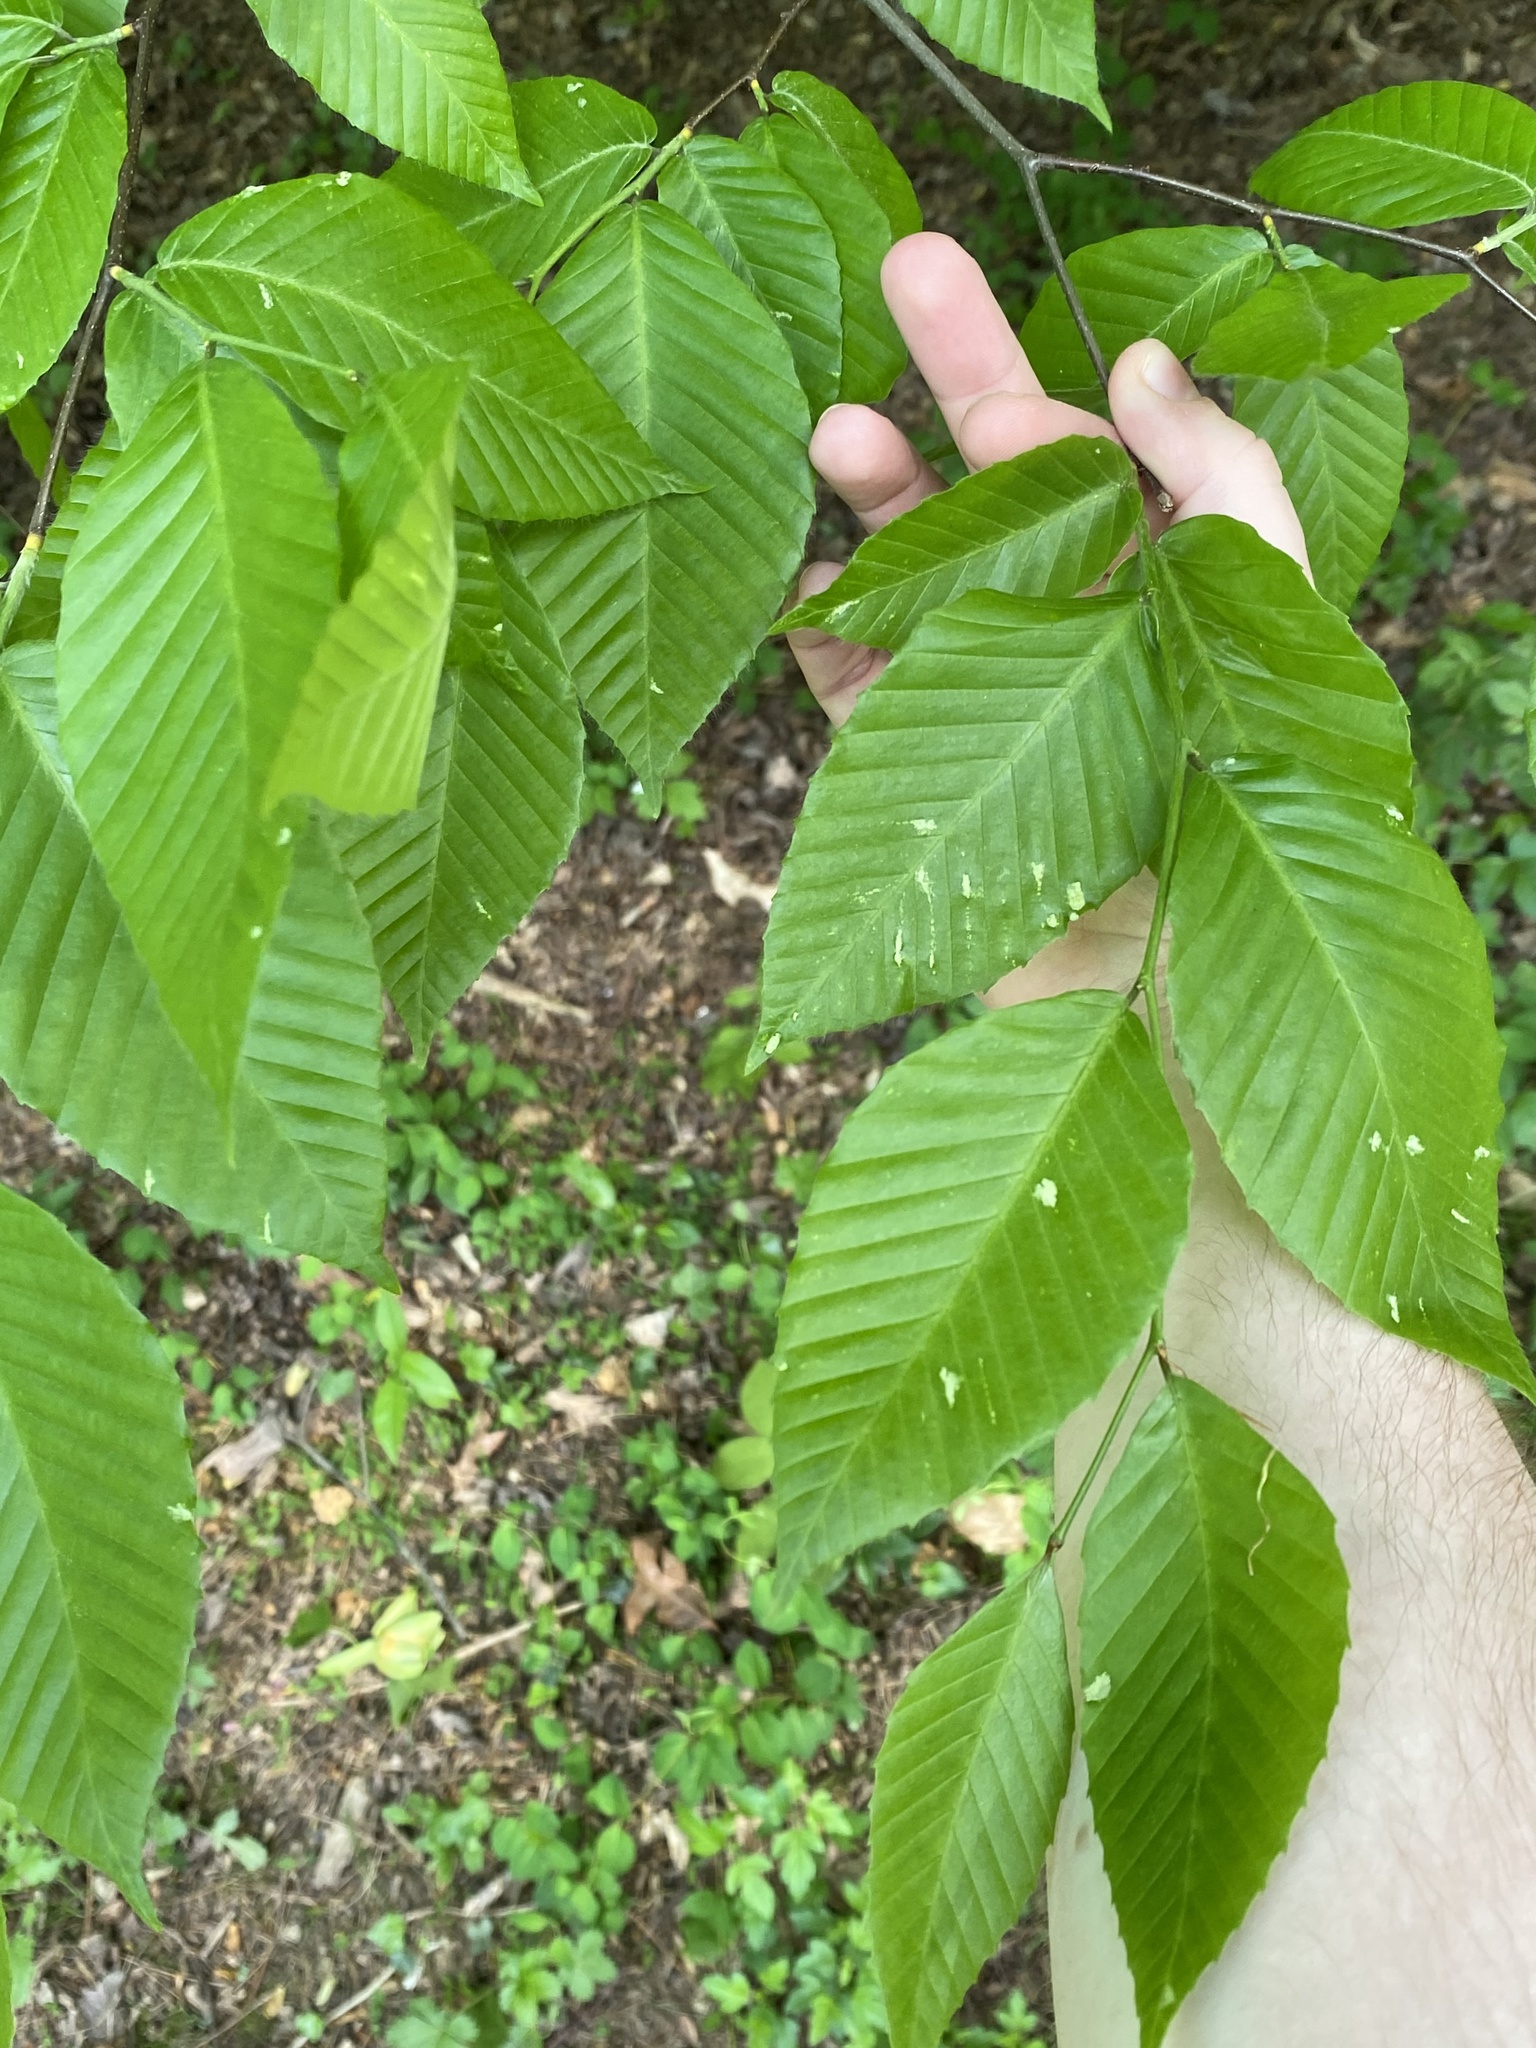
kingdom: Plantae
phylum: Tracheophyta
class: Magnoliopsida
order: Fagales
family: Fagaceae
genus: Fagus
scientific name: Fagus grandifolia
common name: American beech
